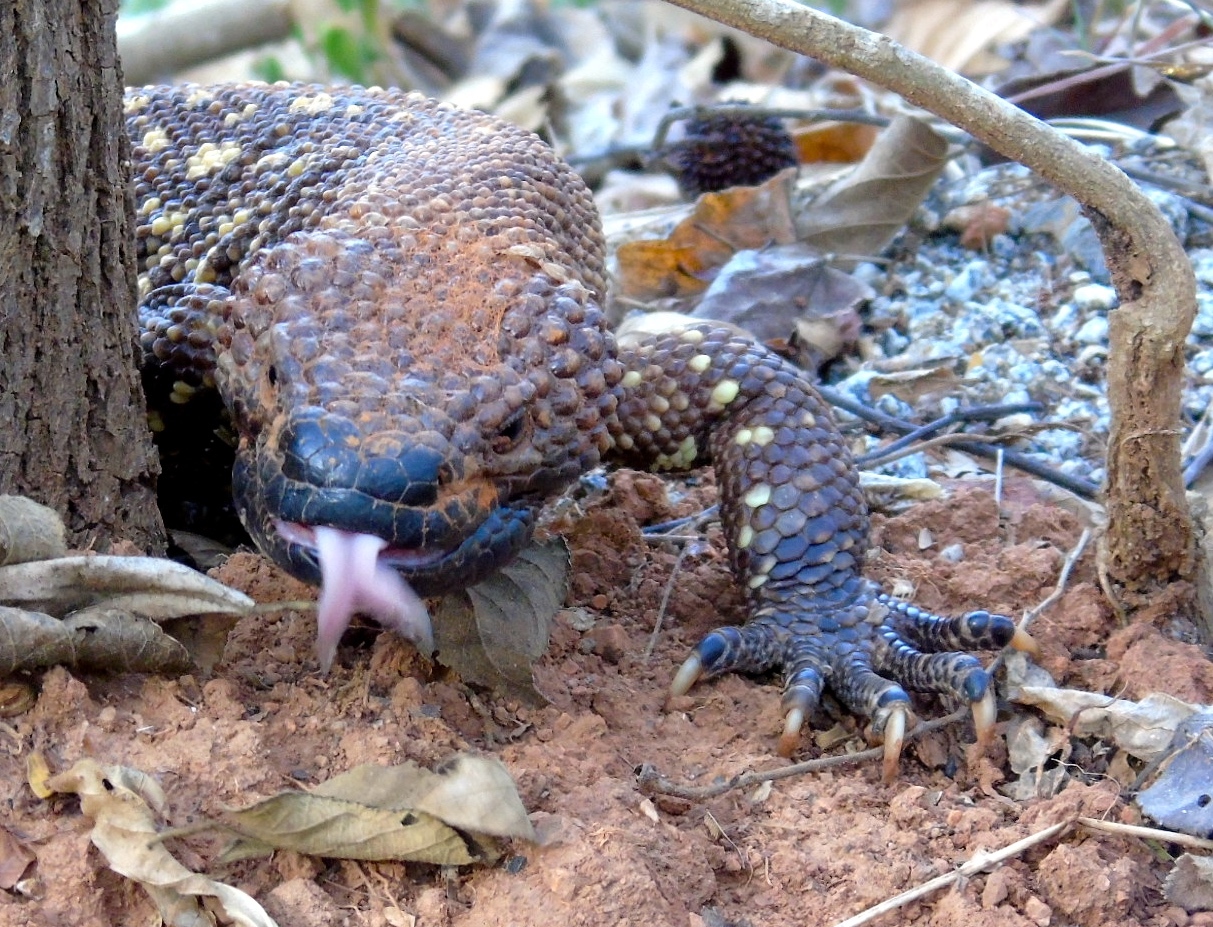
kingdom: Animalia
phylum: Chordata
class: Squamata
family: Helodermatidae
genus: Heloderma
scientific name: Heloderma horridum
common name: Mexican beaded lizard
